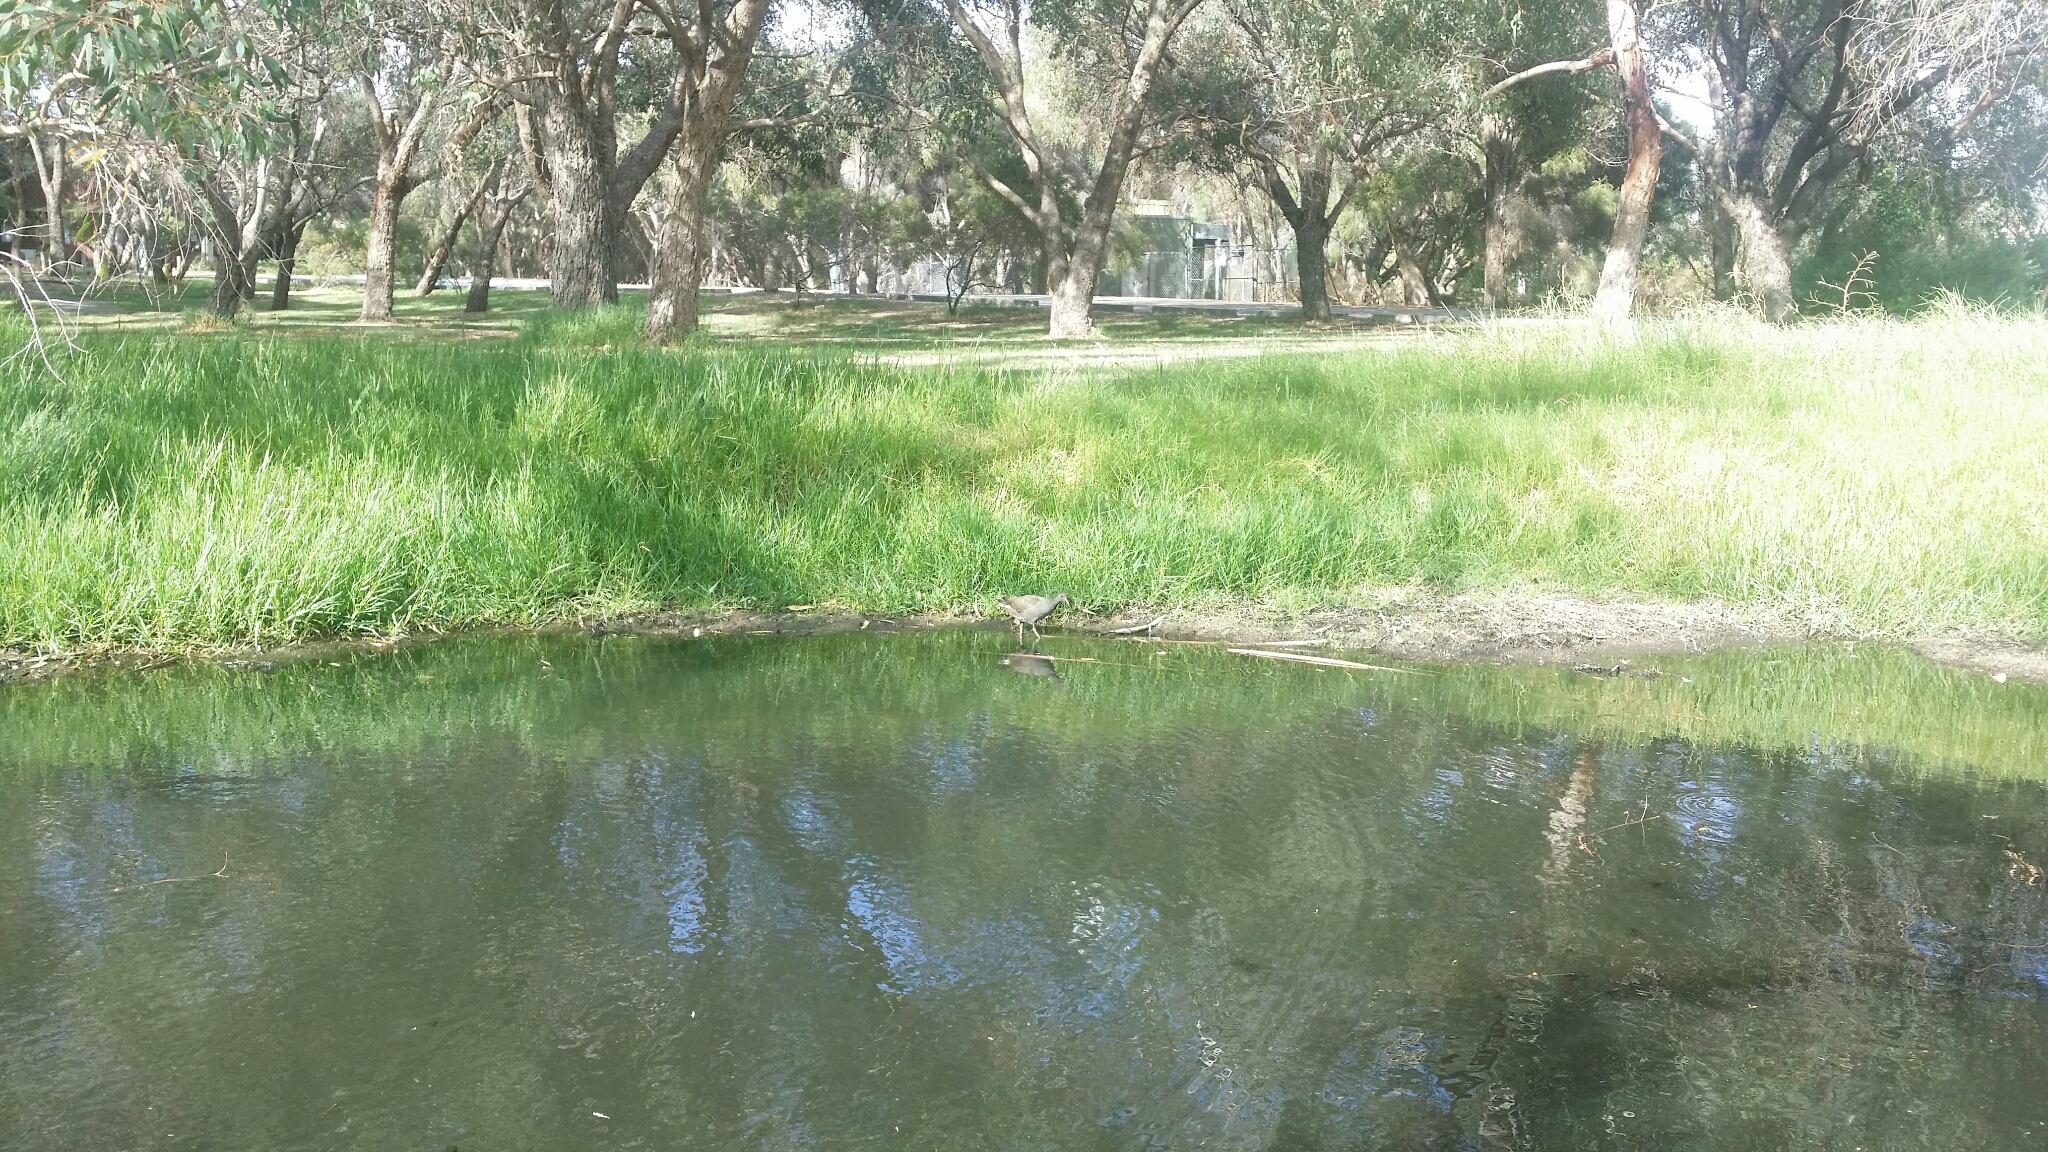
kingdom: Animalia
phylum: Chordata
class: Aves
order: Gruiformes
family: Rallidae
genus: Gallinula
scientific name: Gallinula tenebrosa
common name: Dusky moorhen
